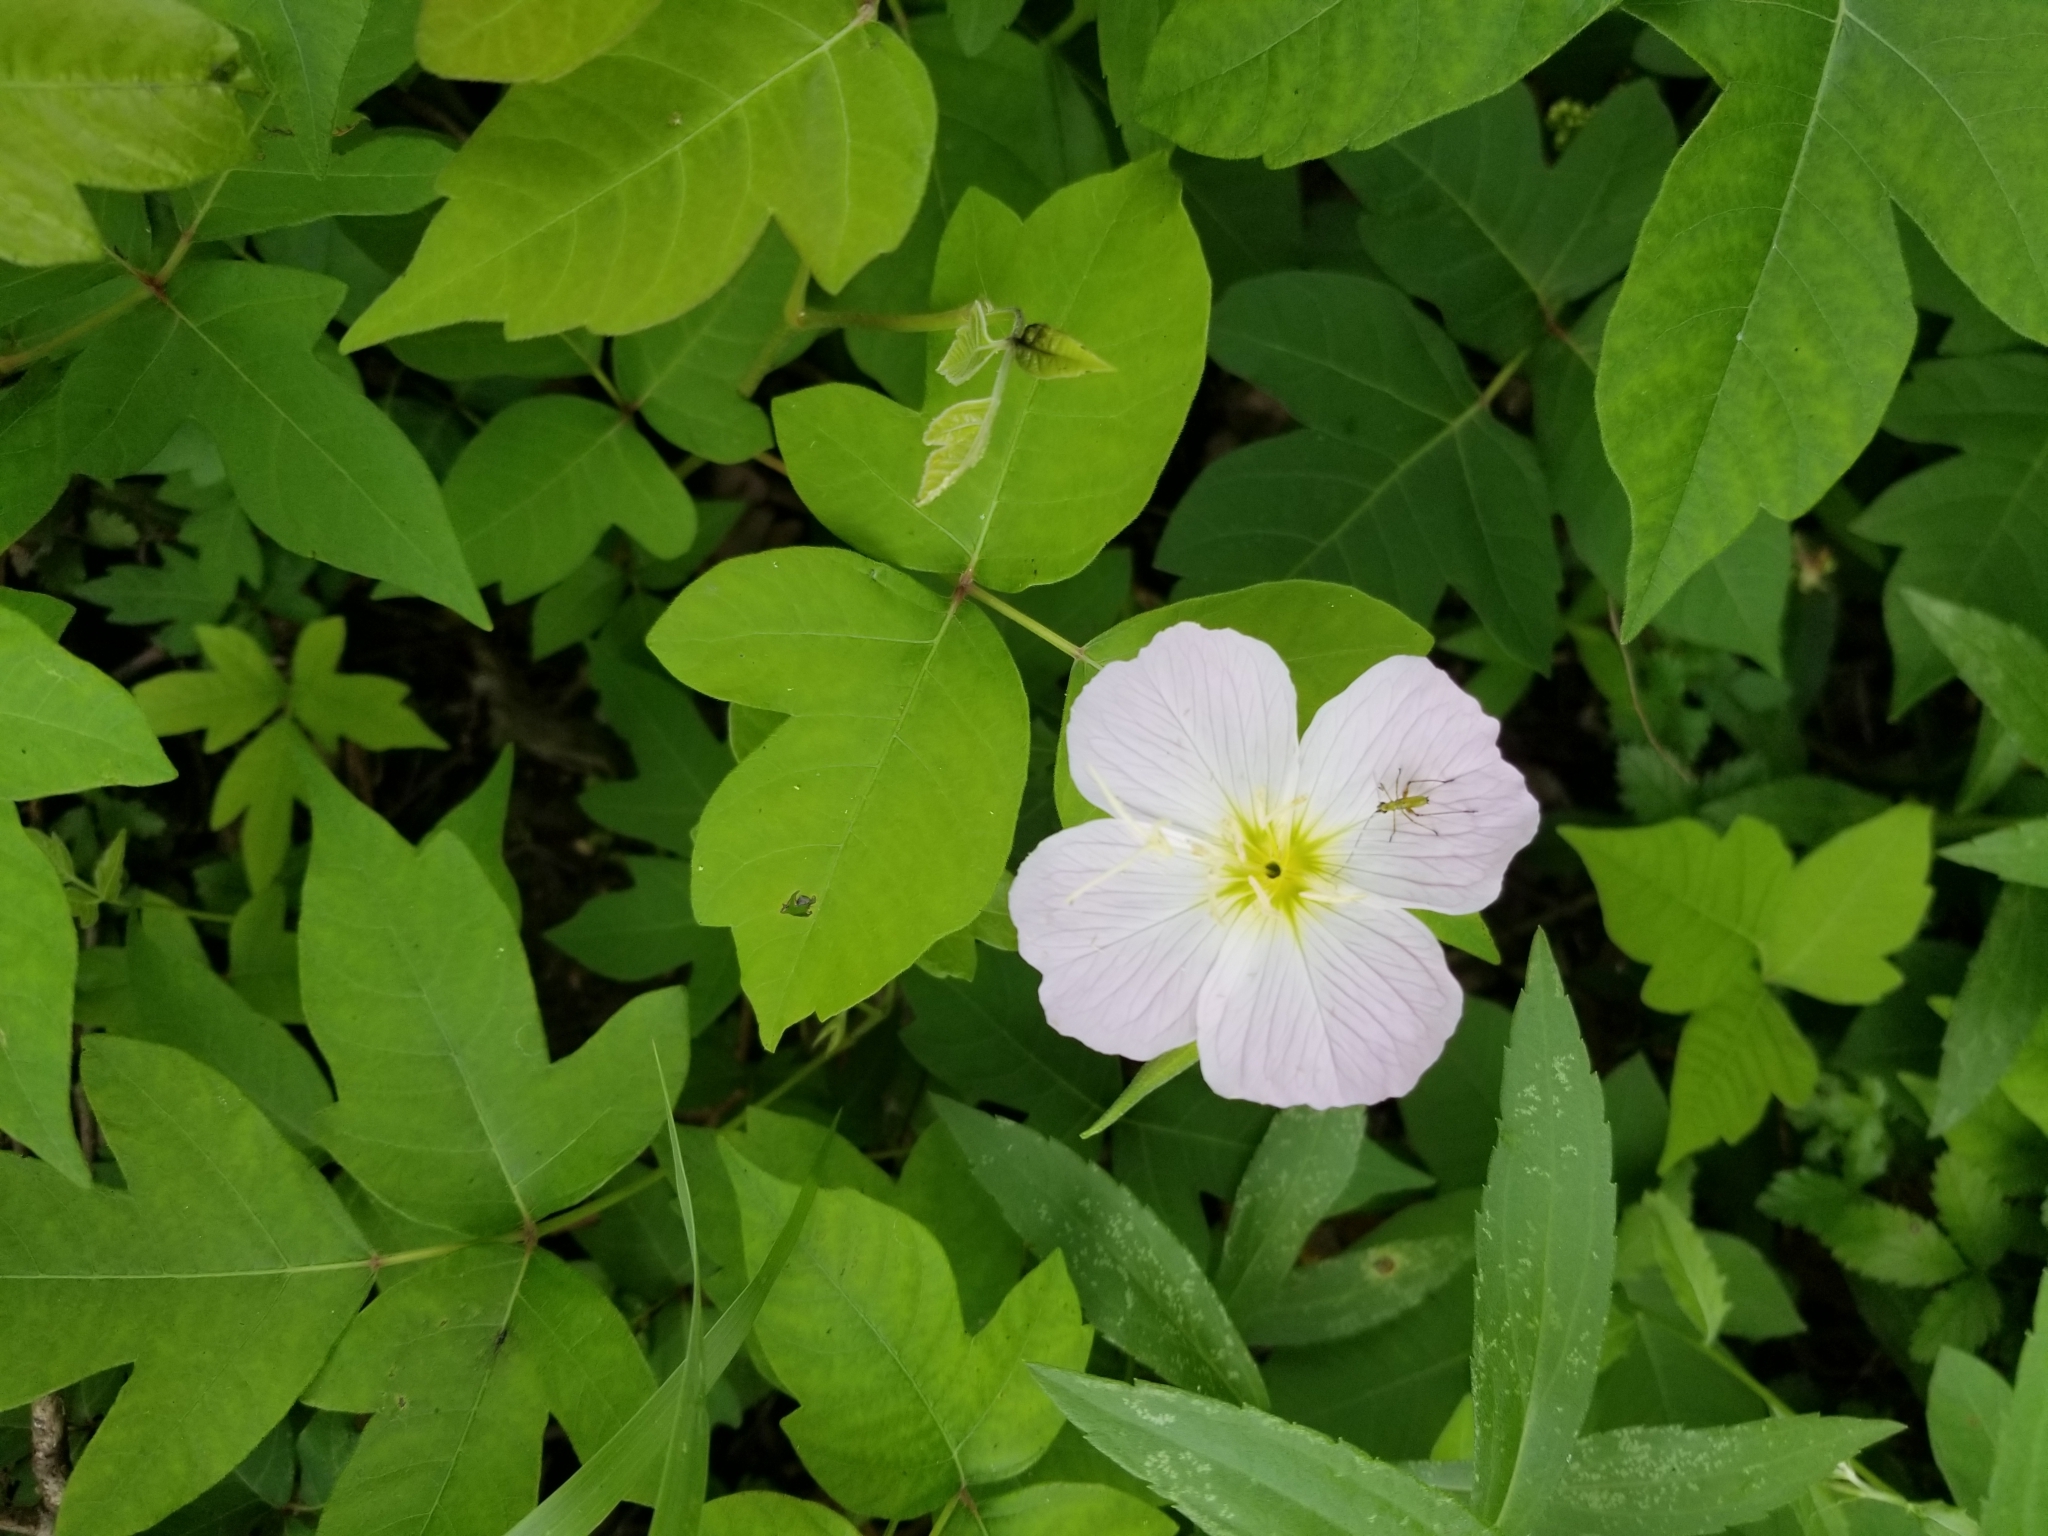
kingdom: Plantae
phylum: Tracheophyta
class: Magnoliopsida
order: Myrtales
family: Onagraceae
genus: Oenothera
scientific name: Oenothera speciosa
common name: White evening-primrose
